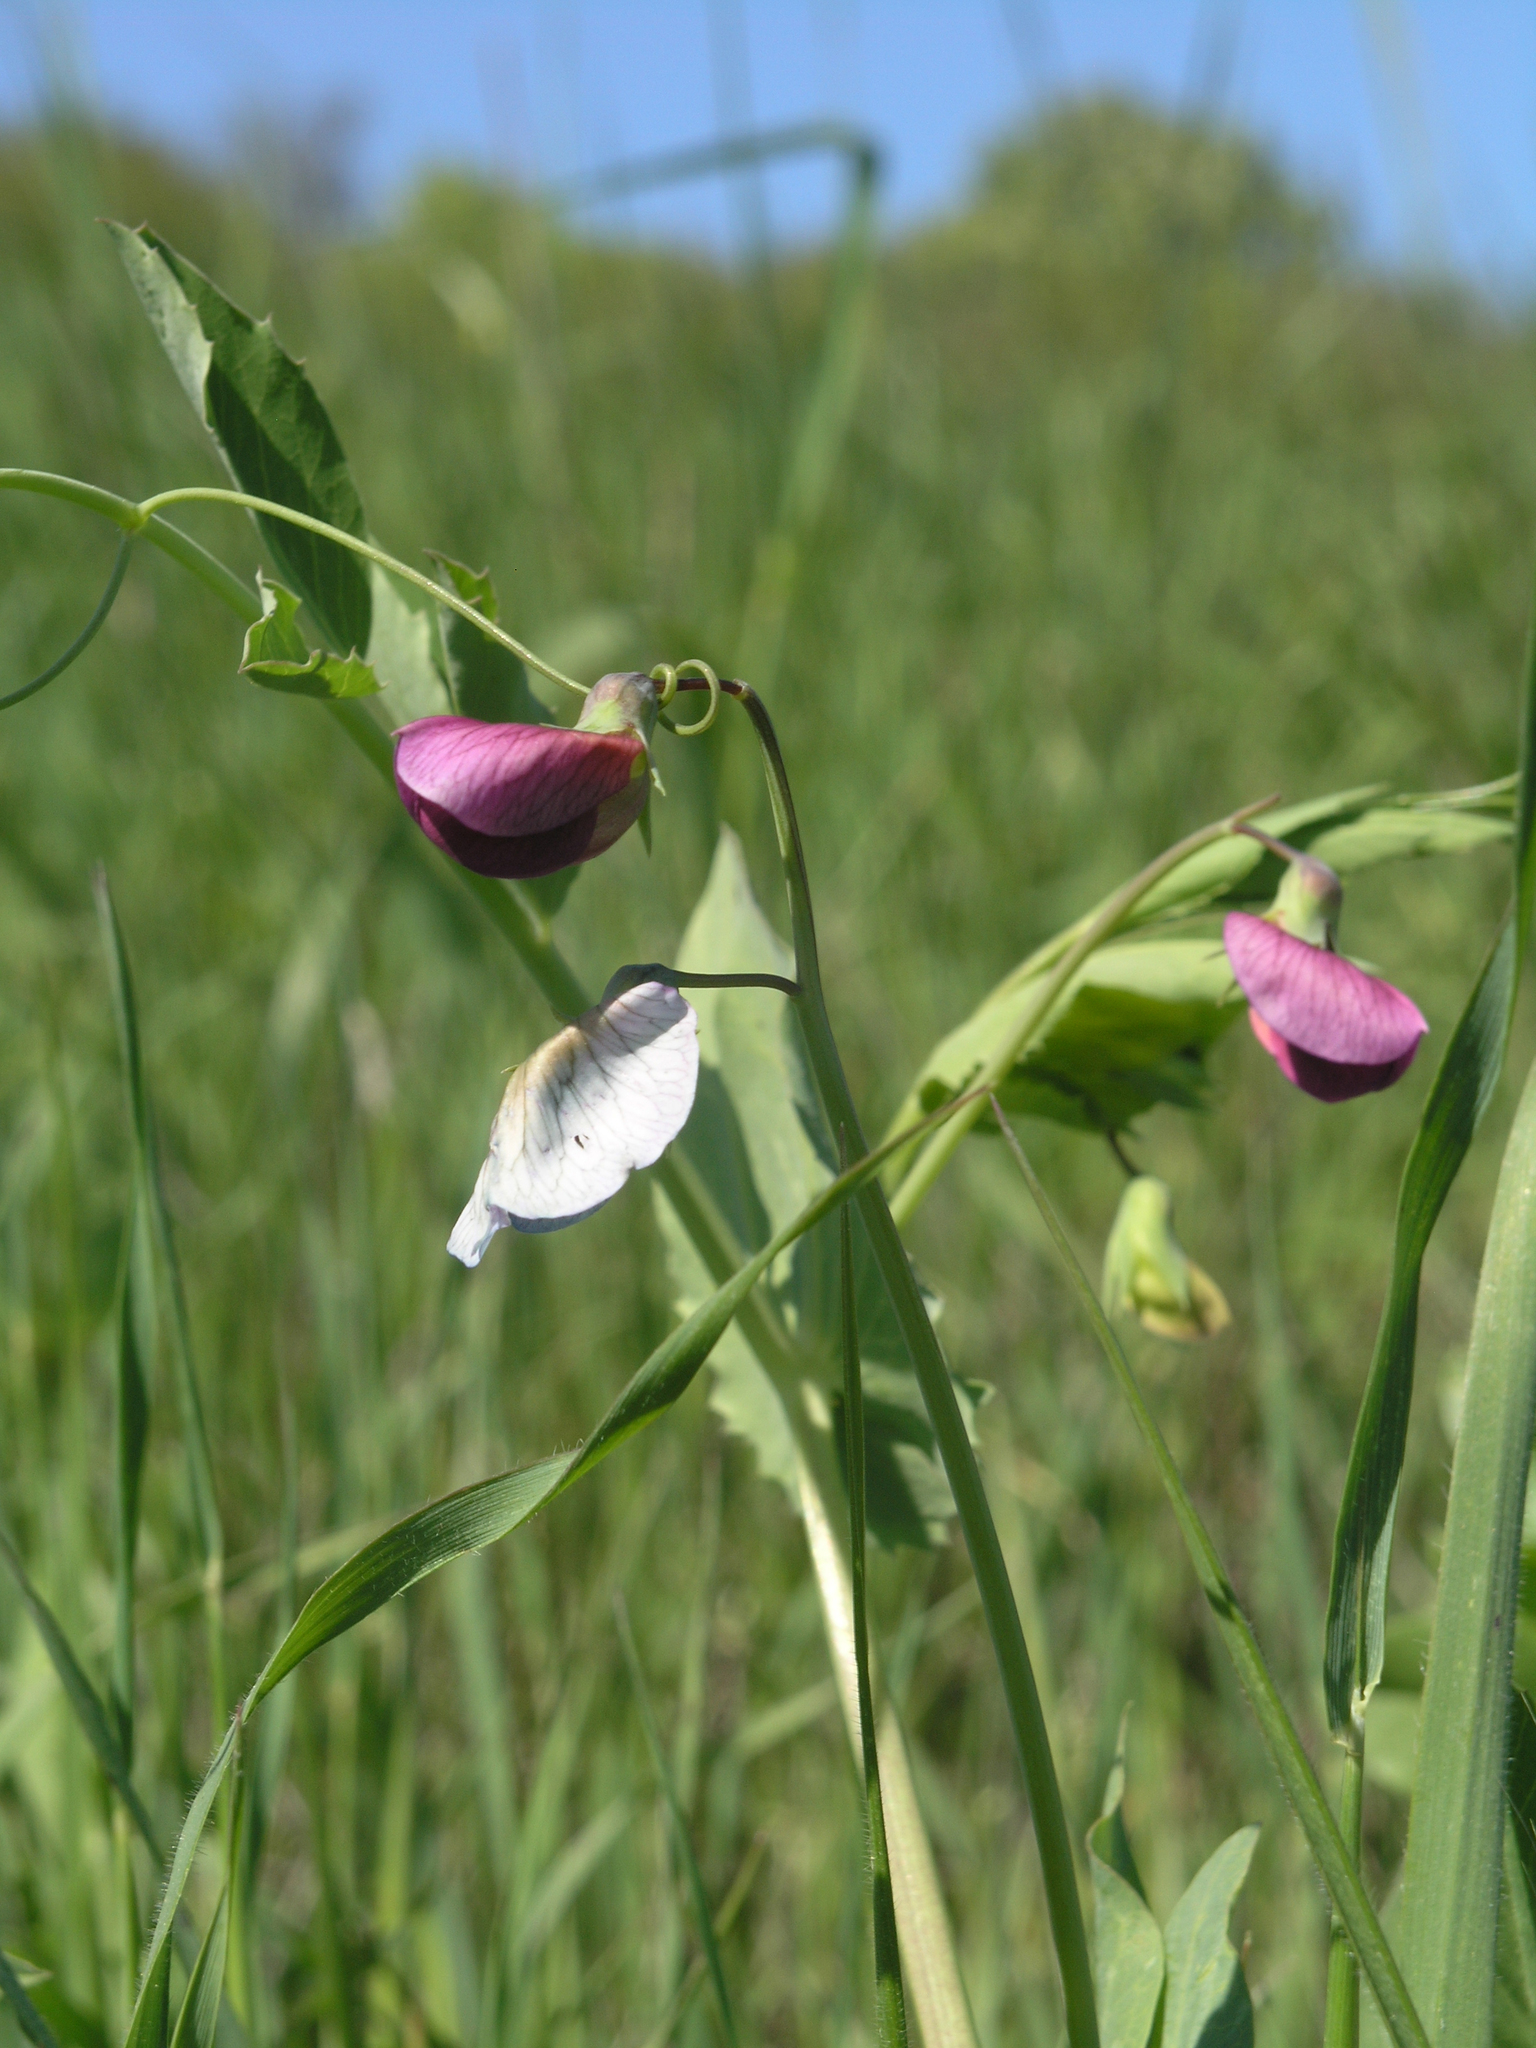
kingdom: Plantae
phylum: Tracheophyta
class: Magnoliopsida
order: Fabales
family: Fabaceae
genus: Lathyrus
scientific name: Lathyrus oleraceus
